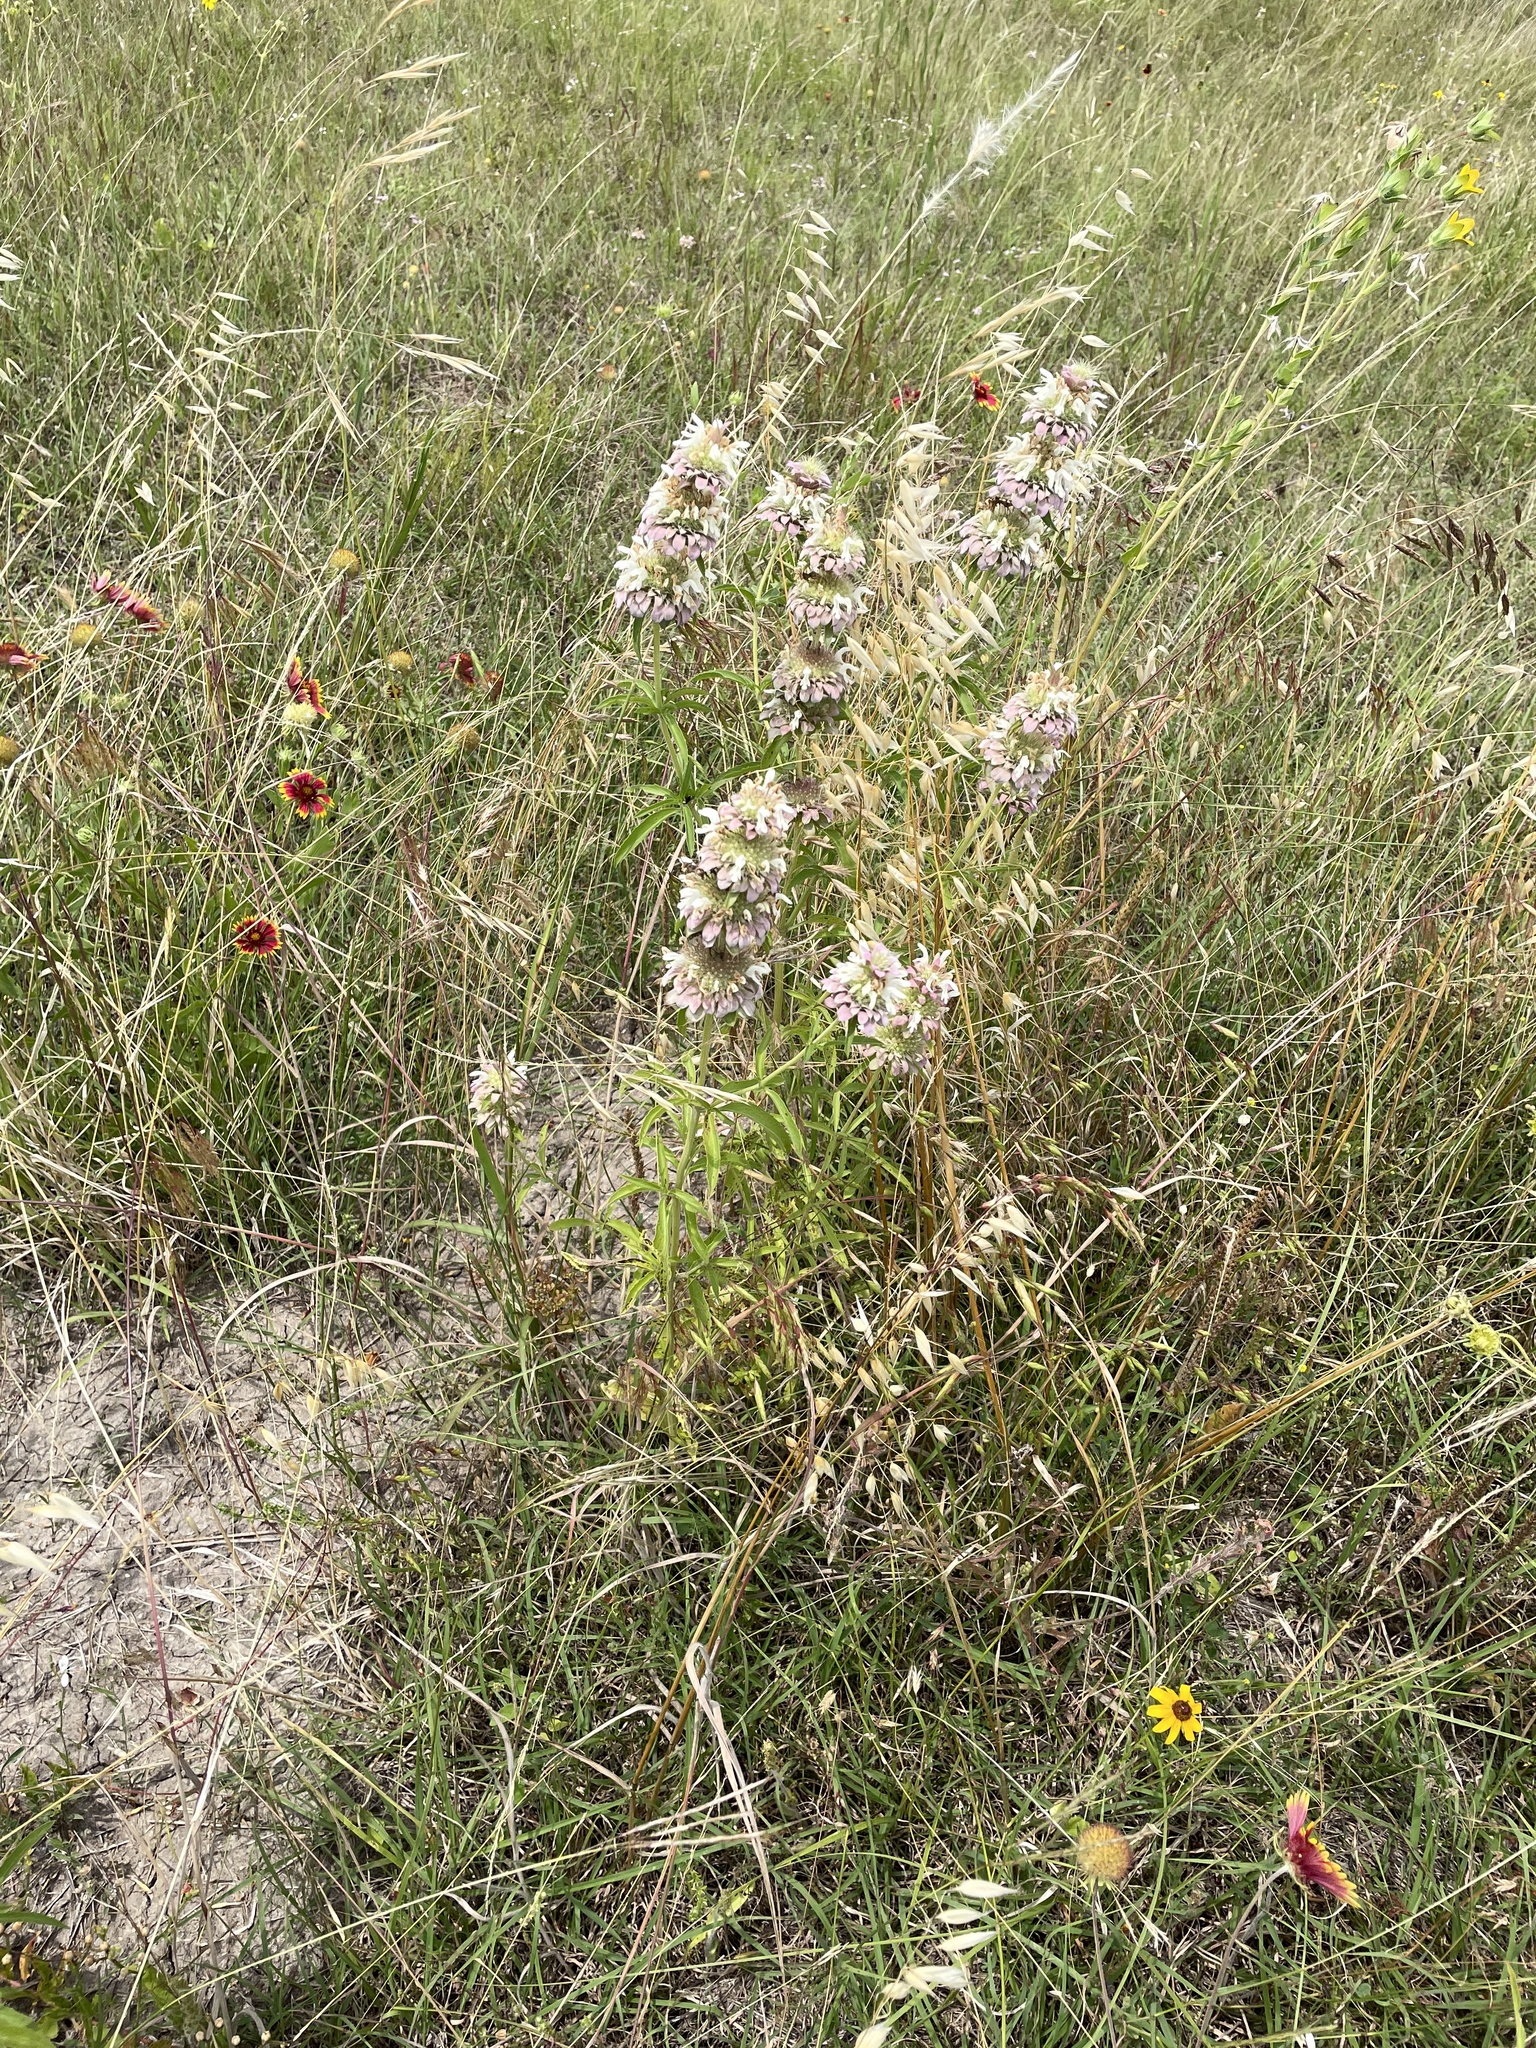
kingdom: Plantae
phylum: Tracheophyta
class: Magnoliopsida
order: Lamiales
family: Lamiaceae
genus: Monarda
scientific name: Monarda citriodora
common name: Lemon beebalm
